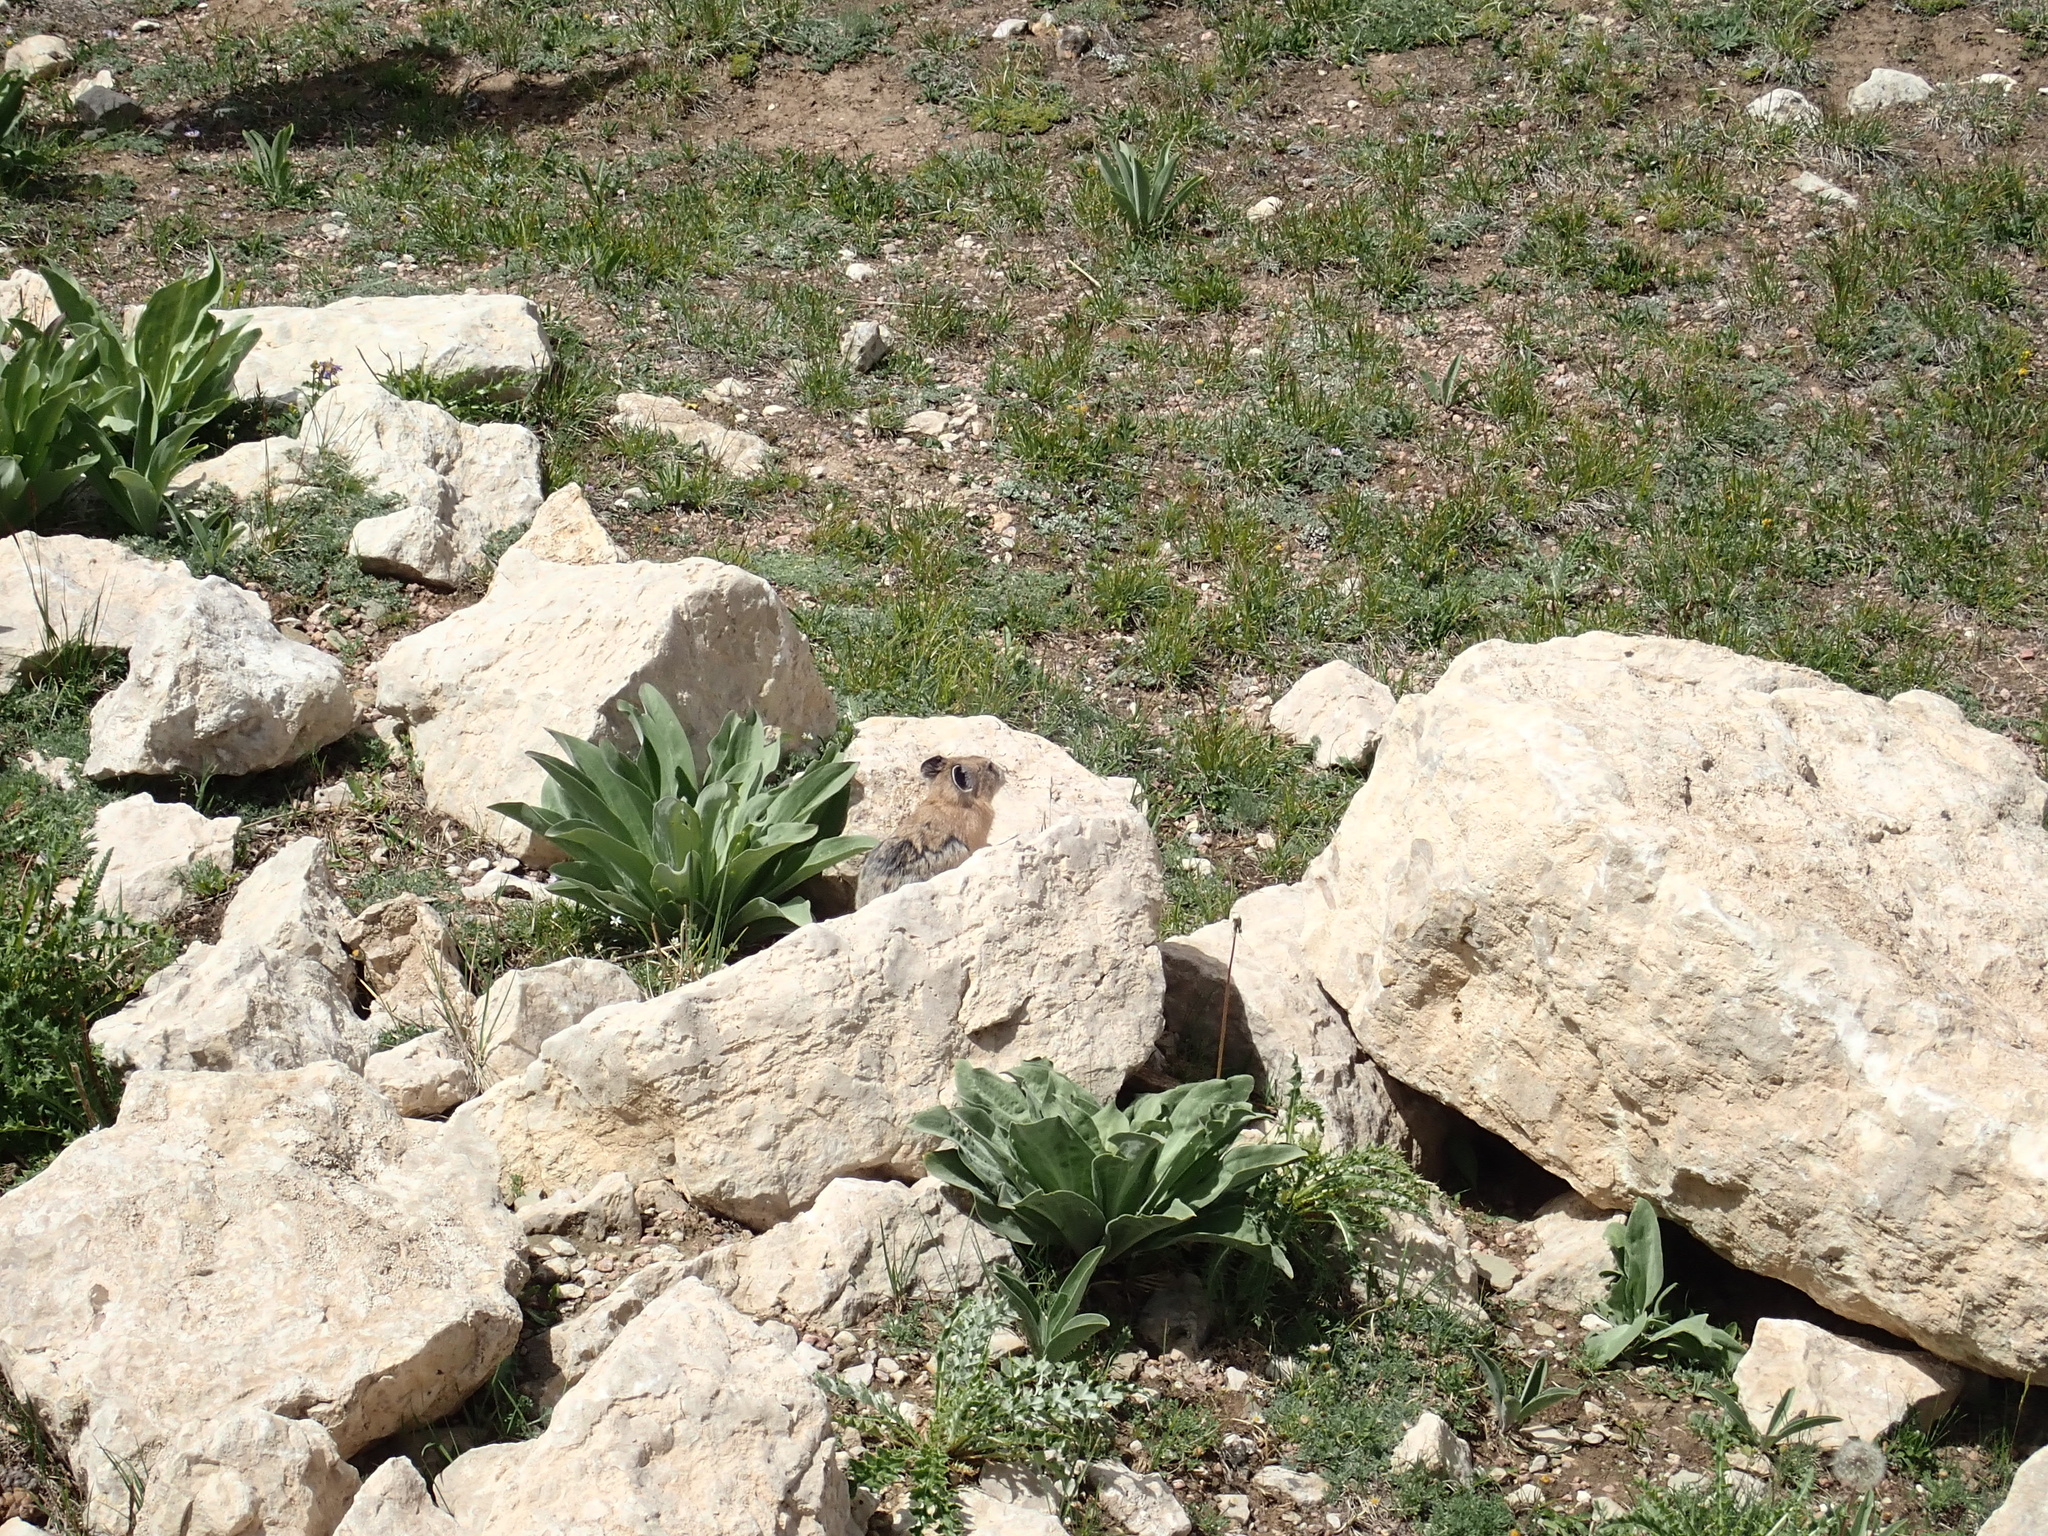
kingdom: Animalia
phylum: Chordata
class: Mammalia
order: Lagomorpha
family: Ochotonidae
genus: Ochotona
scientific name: Ochotona princeps
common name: American pika
